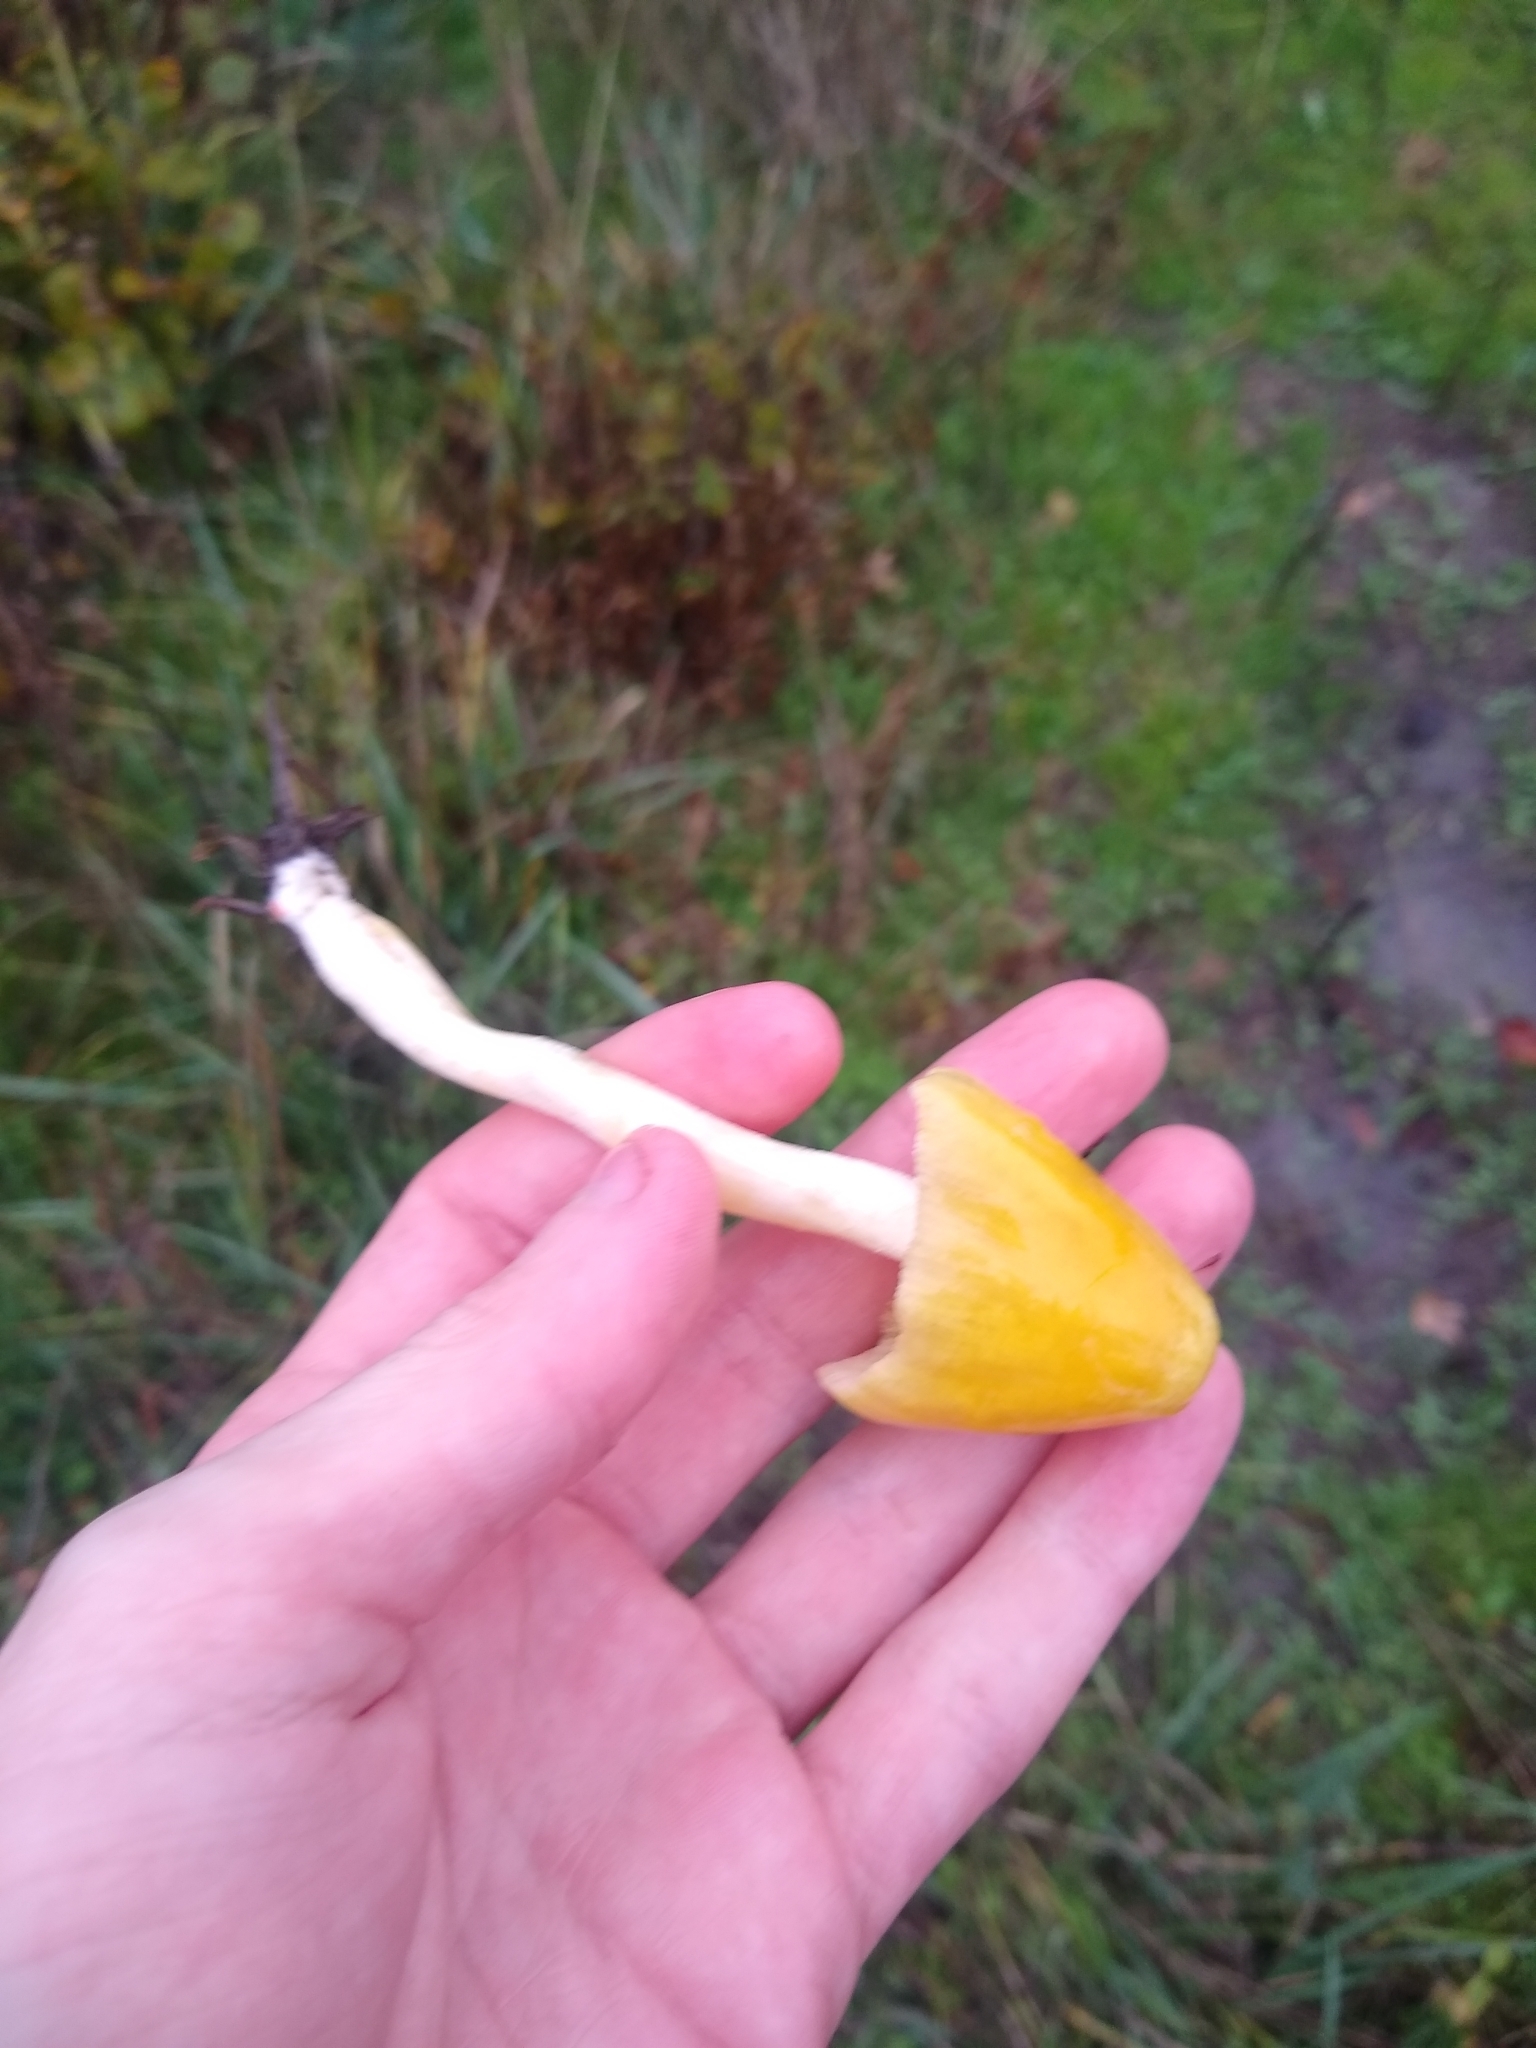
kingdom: Fungi
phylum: Basidiomycota
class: Agaricomycetes
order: Agaricales
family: Bolbitiaceae
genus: Bolbitius
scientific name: Bolbitius titubans
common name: Yellow fieldcap
